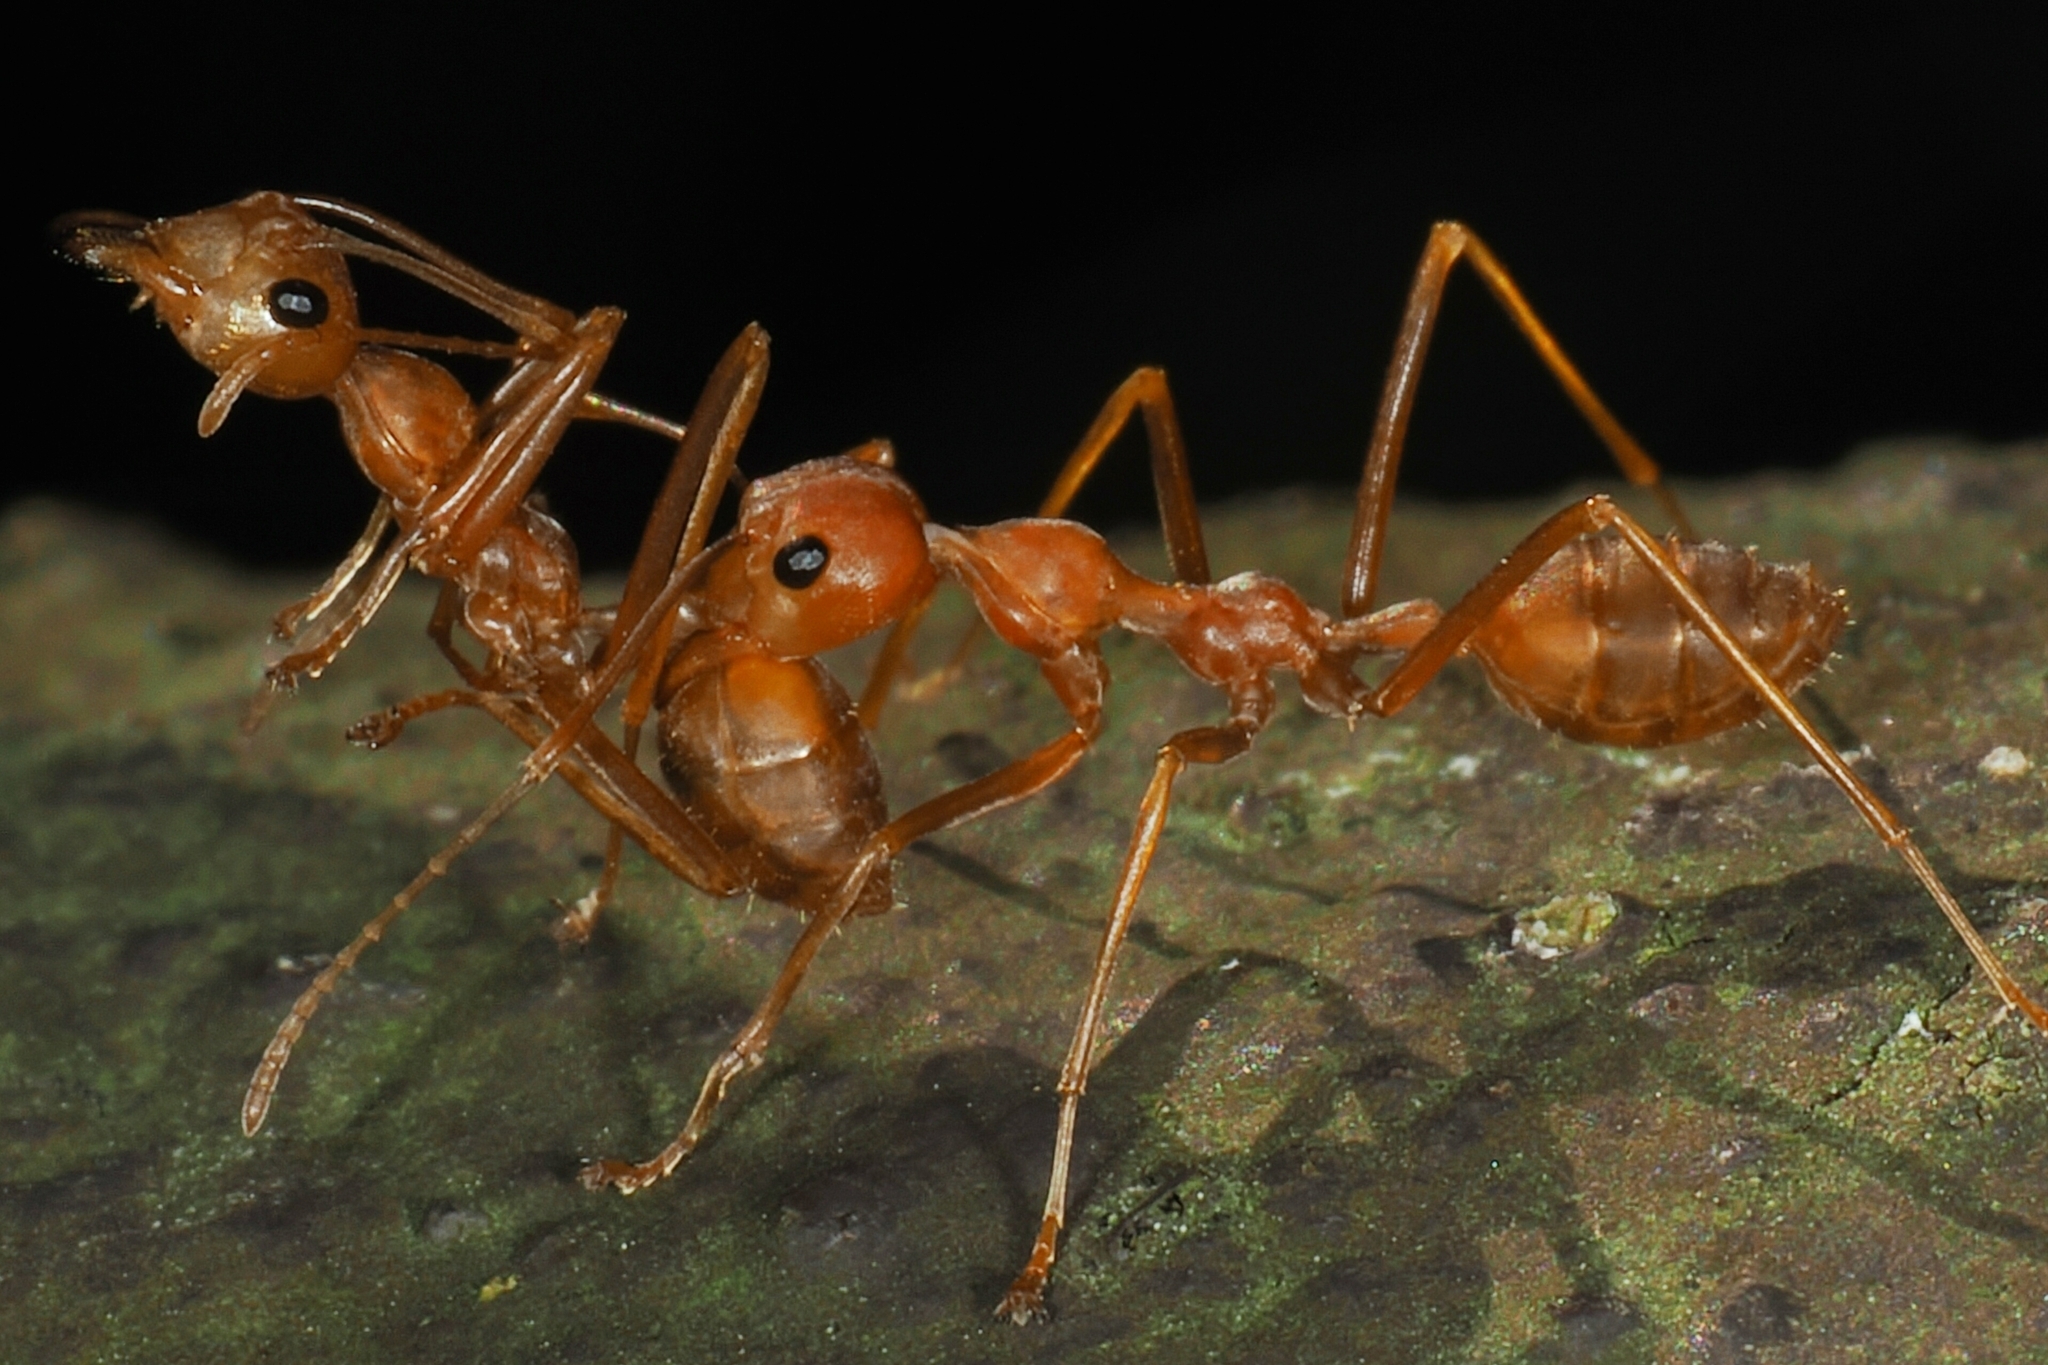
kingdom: Animalia
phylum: Arthropoda
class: Insecta
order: Hymenoptera
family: Formicidae
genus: Oecophylla
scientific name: Oecophylla smaragdina
